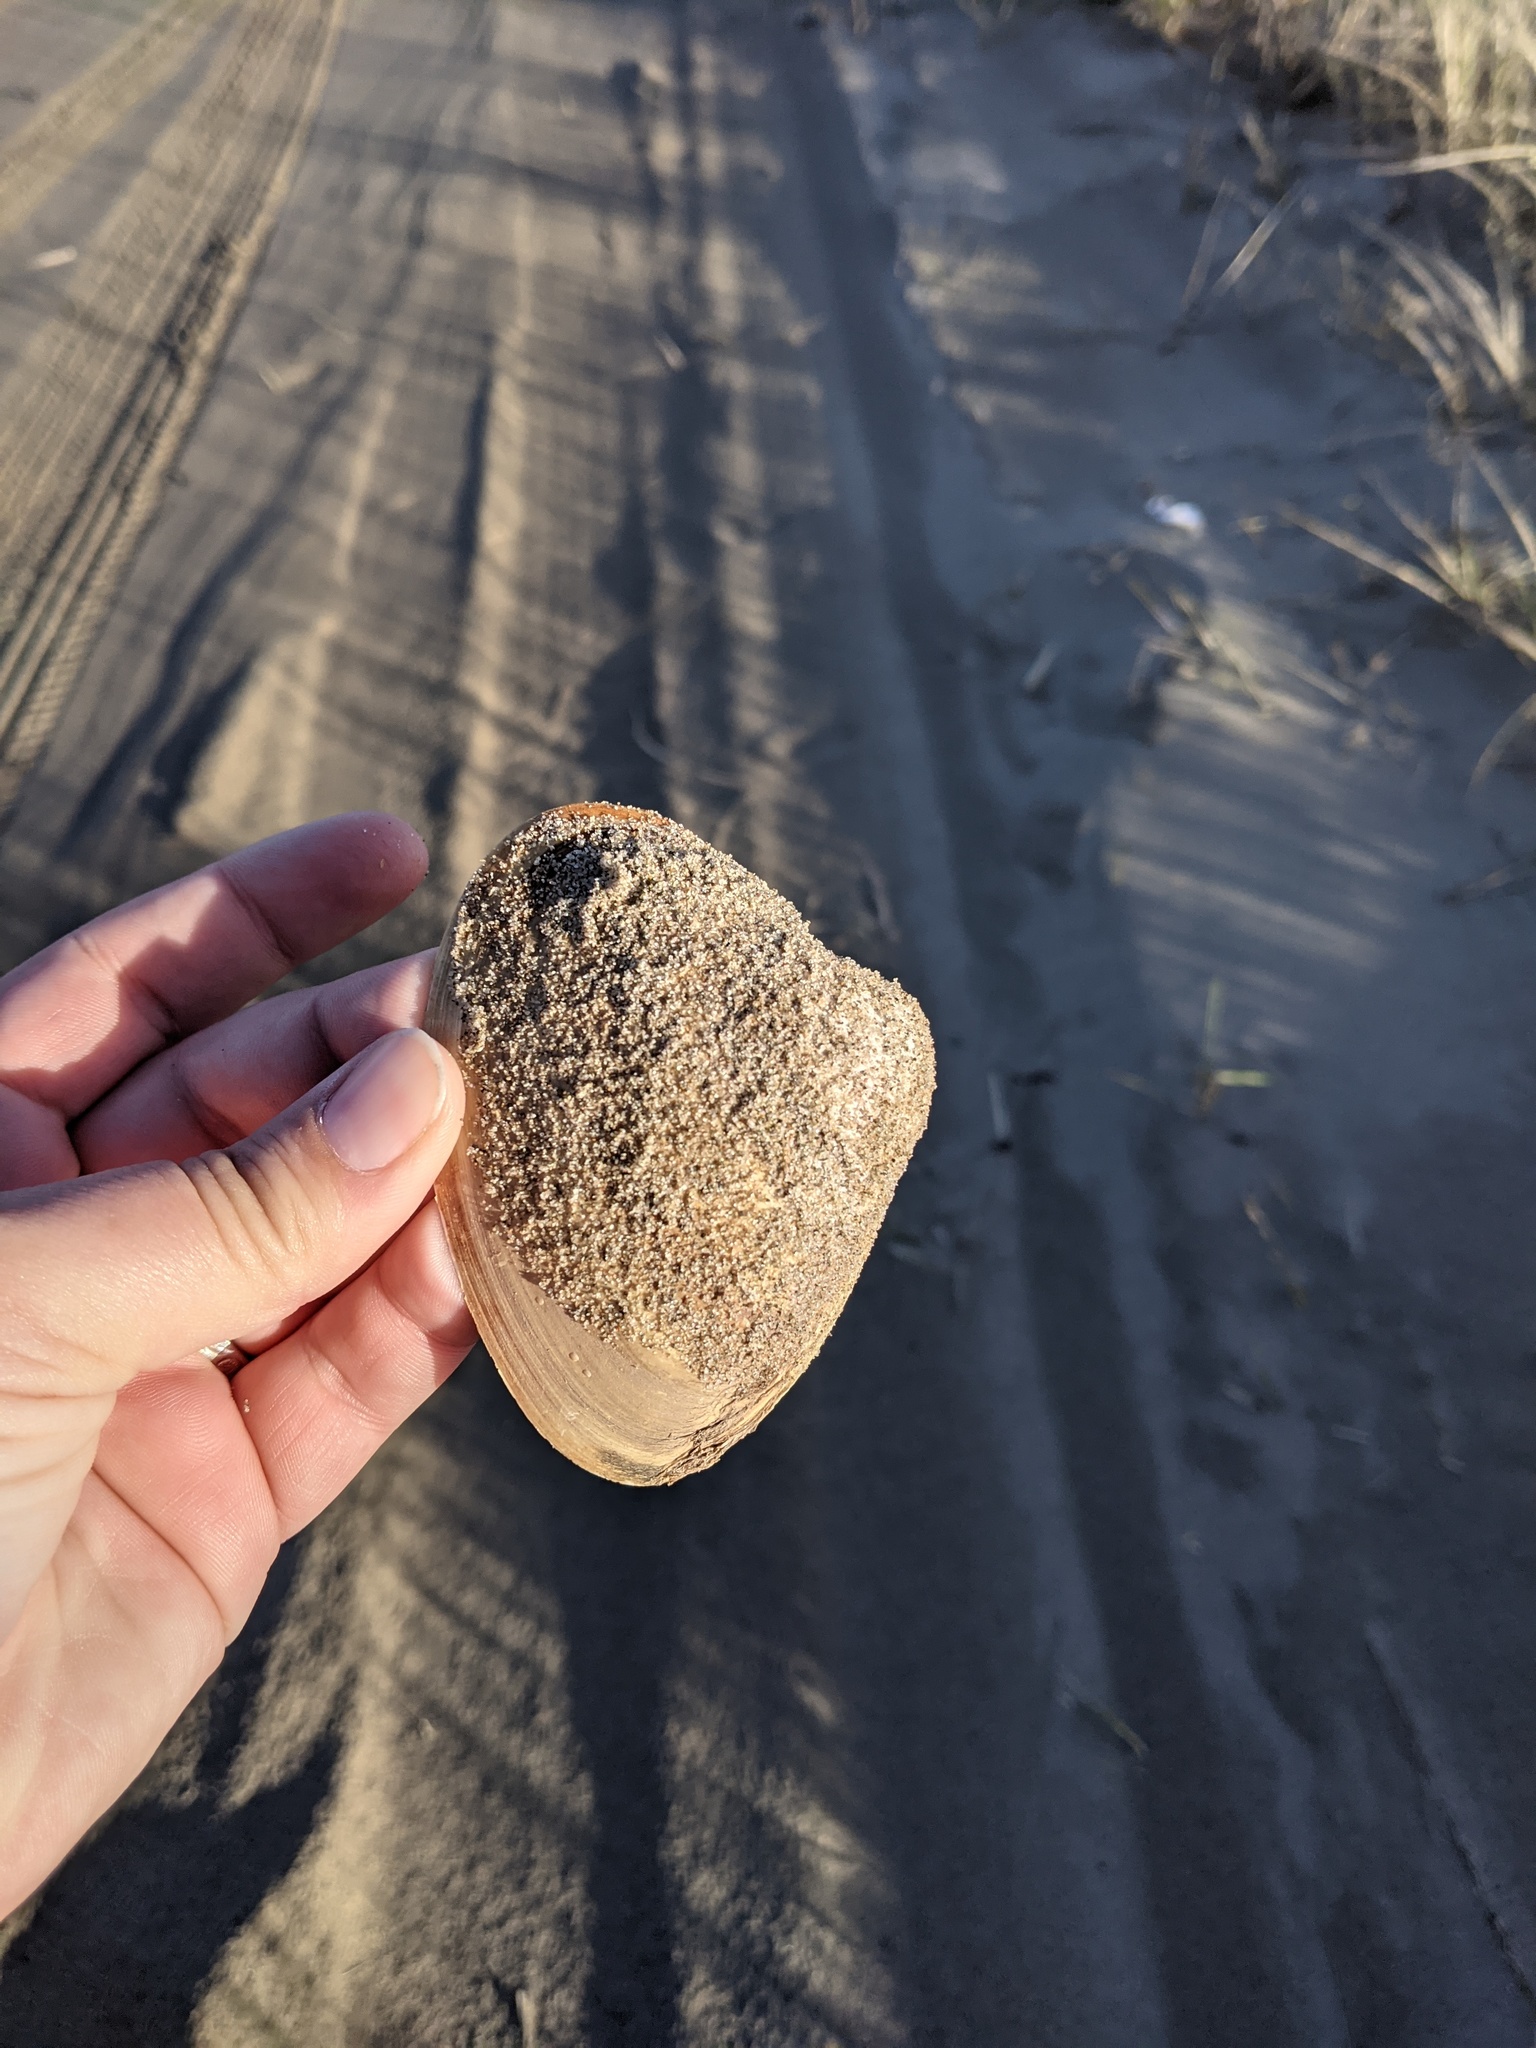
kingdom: Animalia
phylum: Mollusca
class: Bivalvia
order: Venerida
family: Mactridae
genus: Spisula
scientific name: Spisula solidissima
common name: Atlantic surf clam
